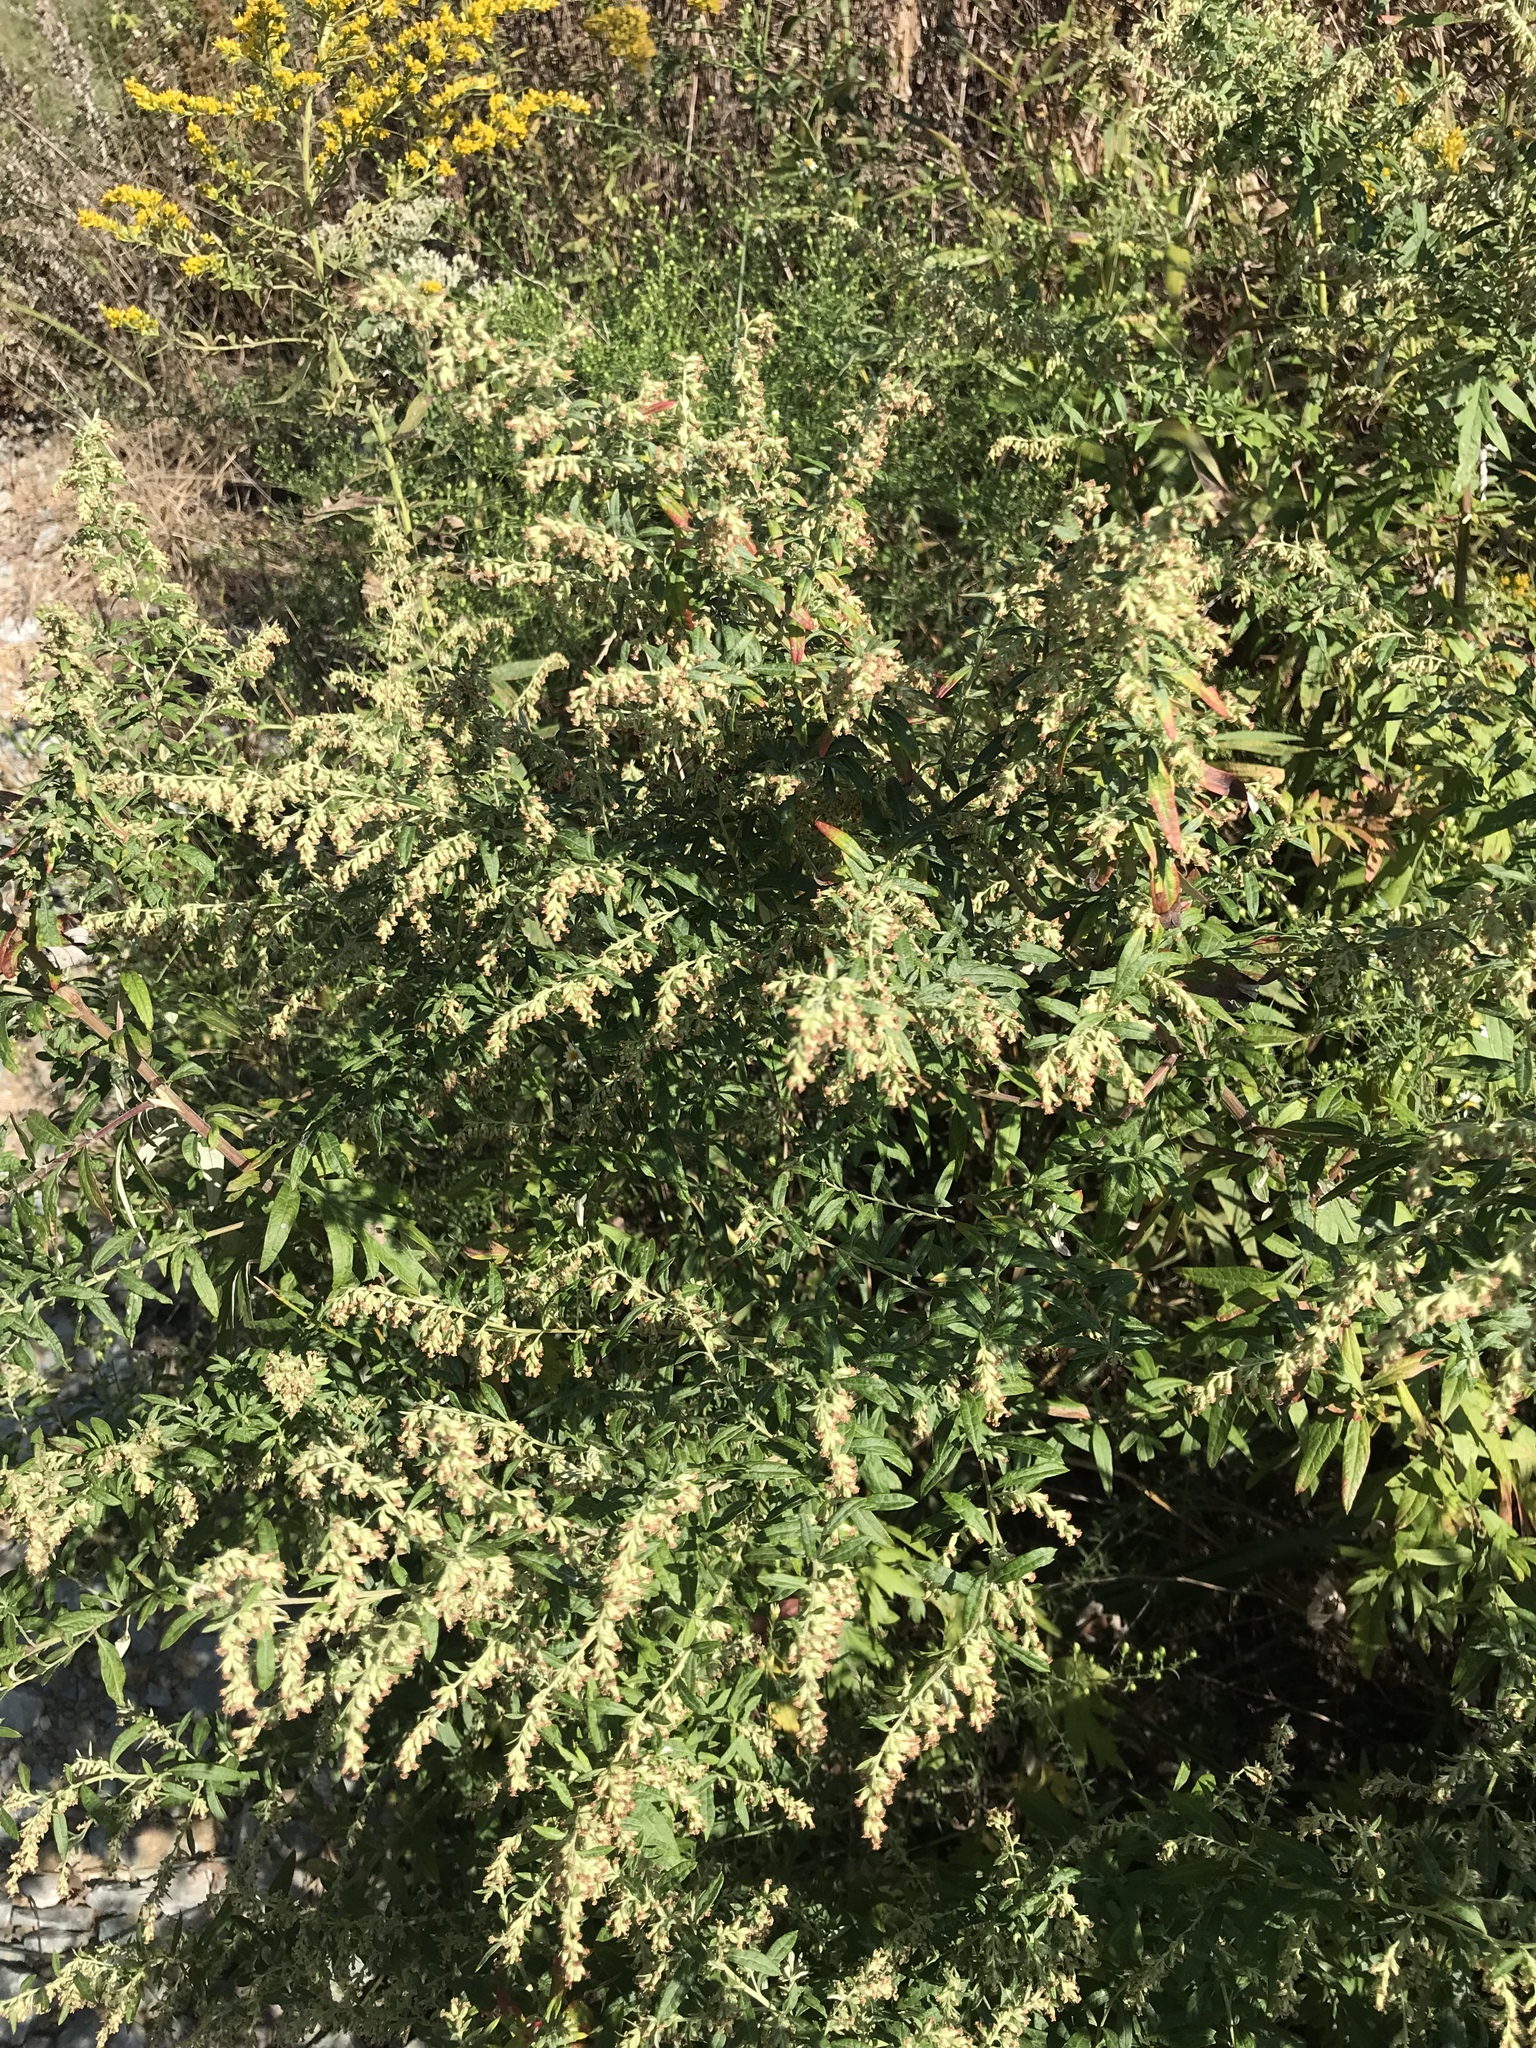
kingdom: Plantae
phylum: Tracheophyta
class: Magnoliopsida
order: Asterales
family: Asteraceae
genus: Artemisia
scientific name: Artemisia vulgaris
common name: Mugwort
